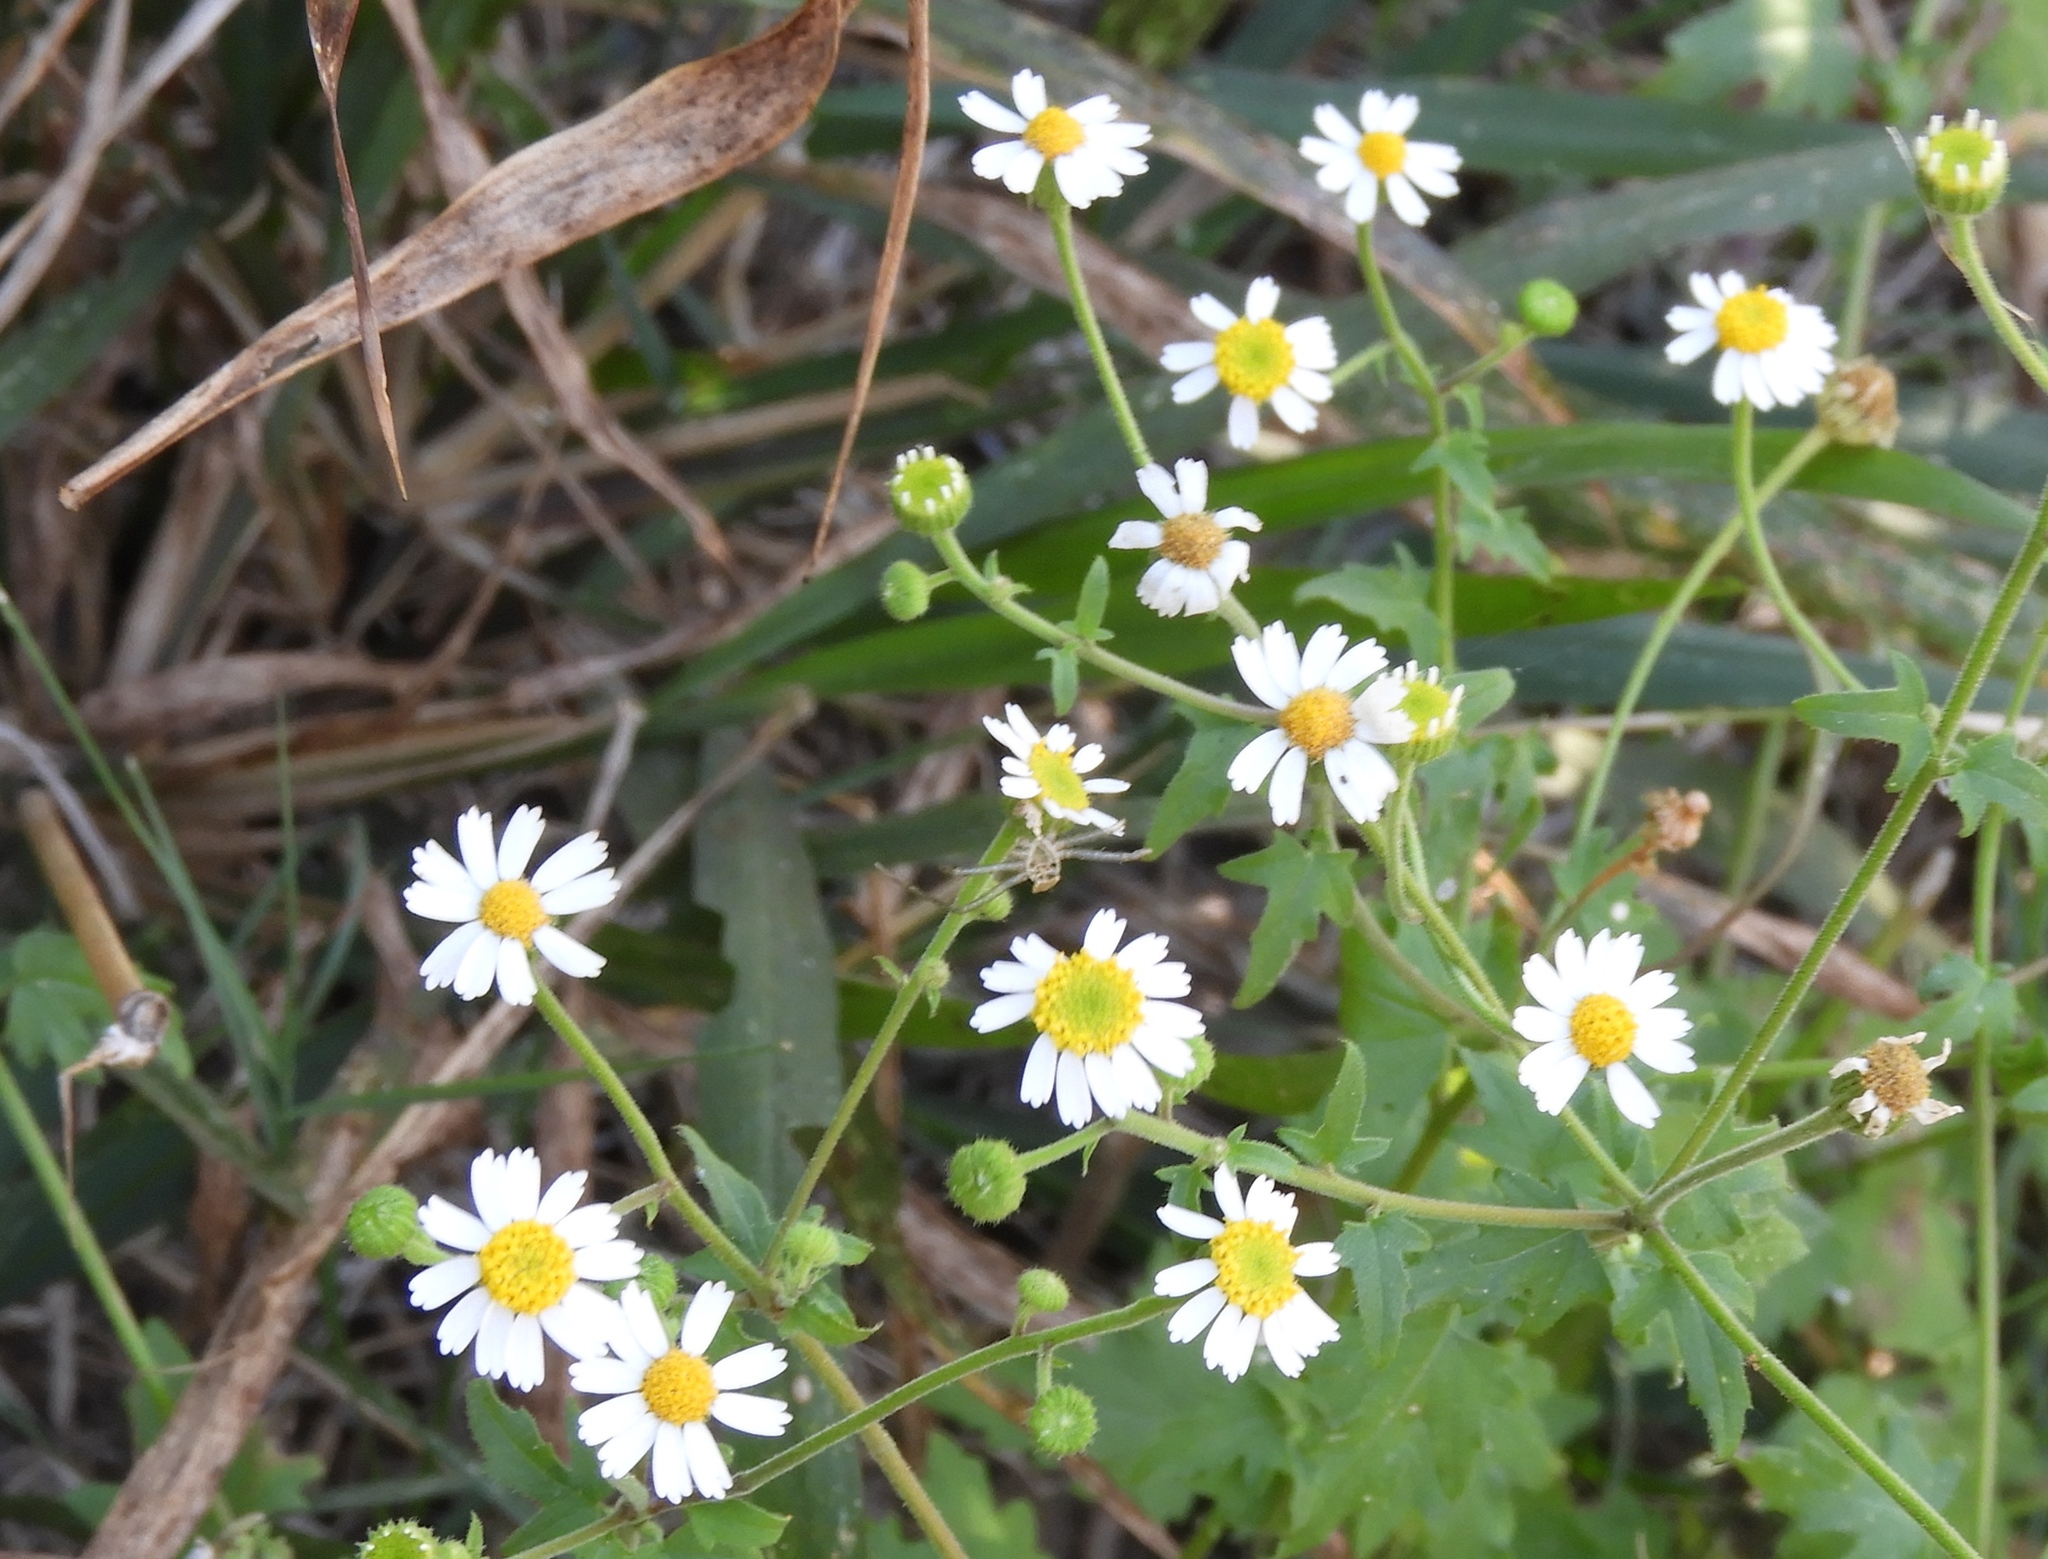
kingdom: Plantae
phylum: Tracheophyta
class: Magnoliopsida
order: Asterales
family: Asteraceae
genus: Galinsogeopsis
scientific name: Galinsogeopsis spilanthoides
